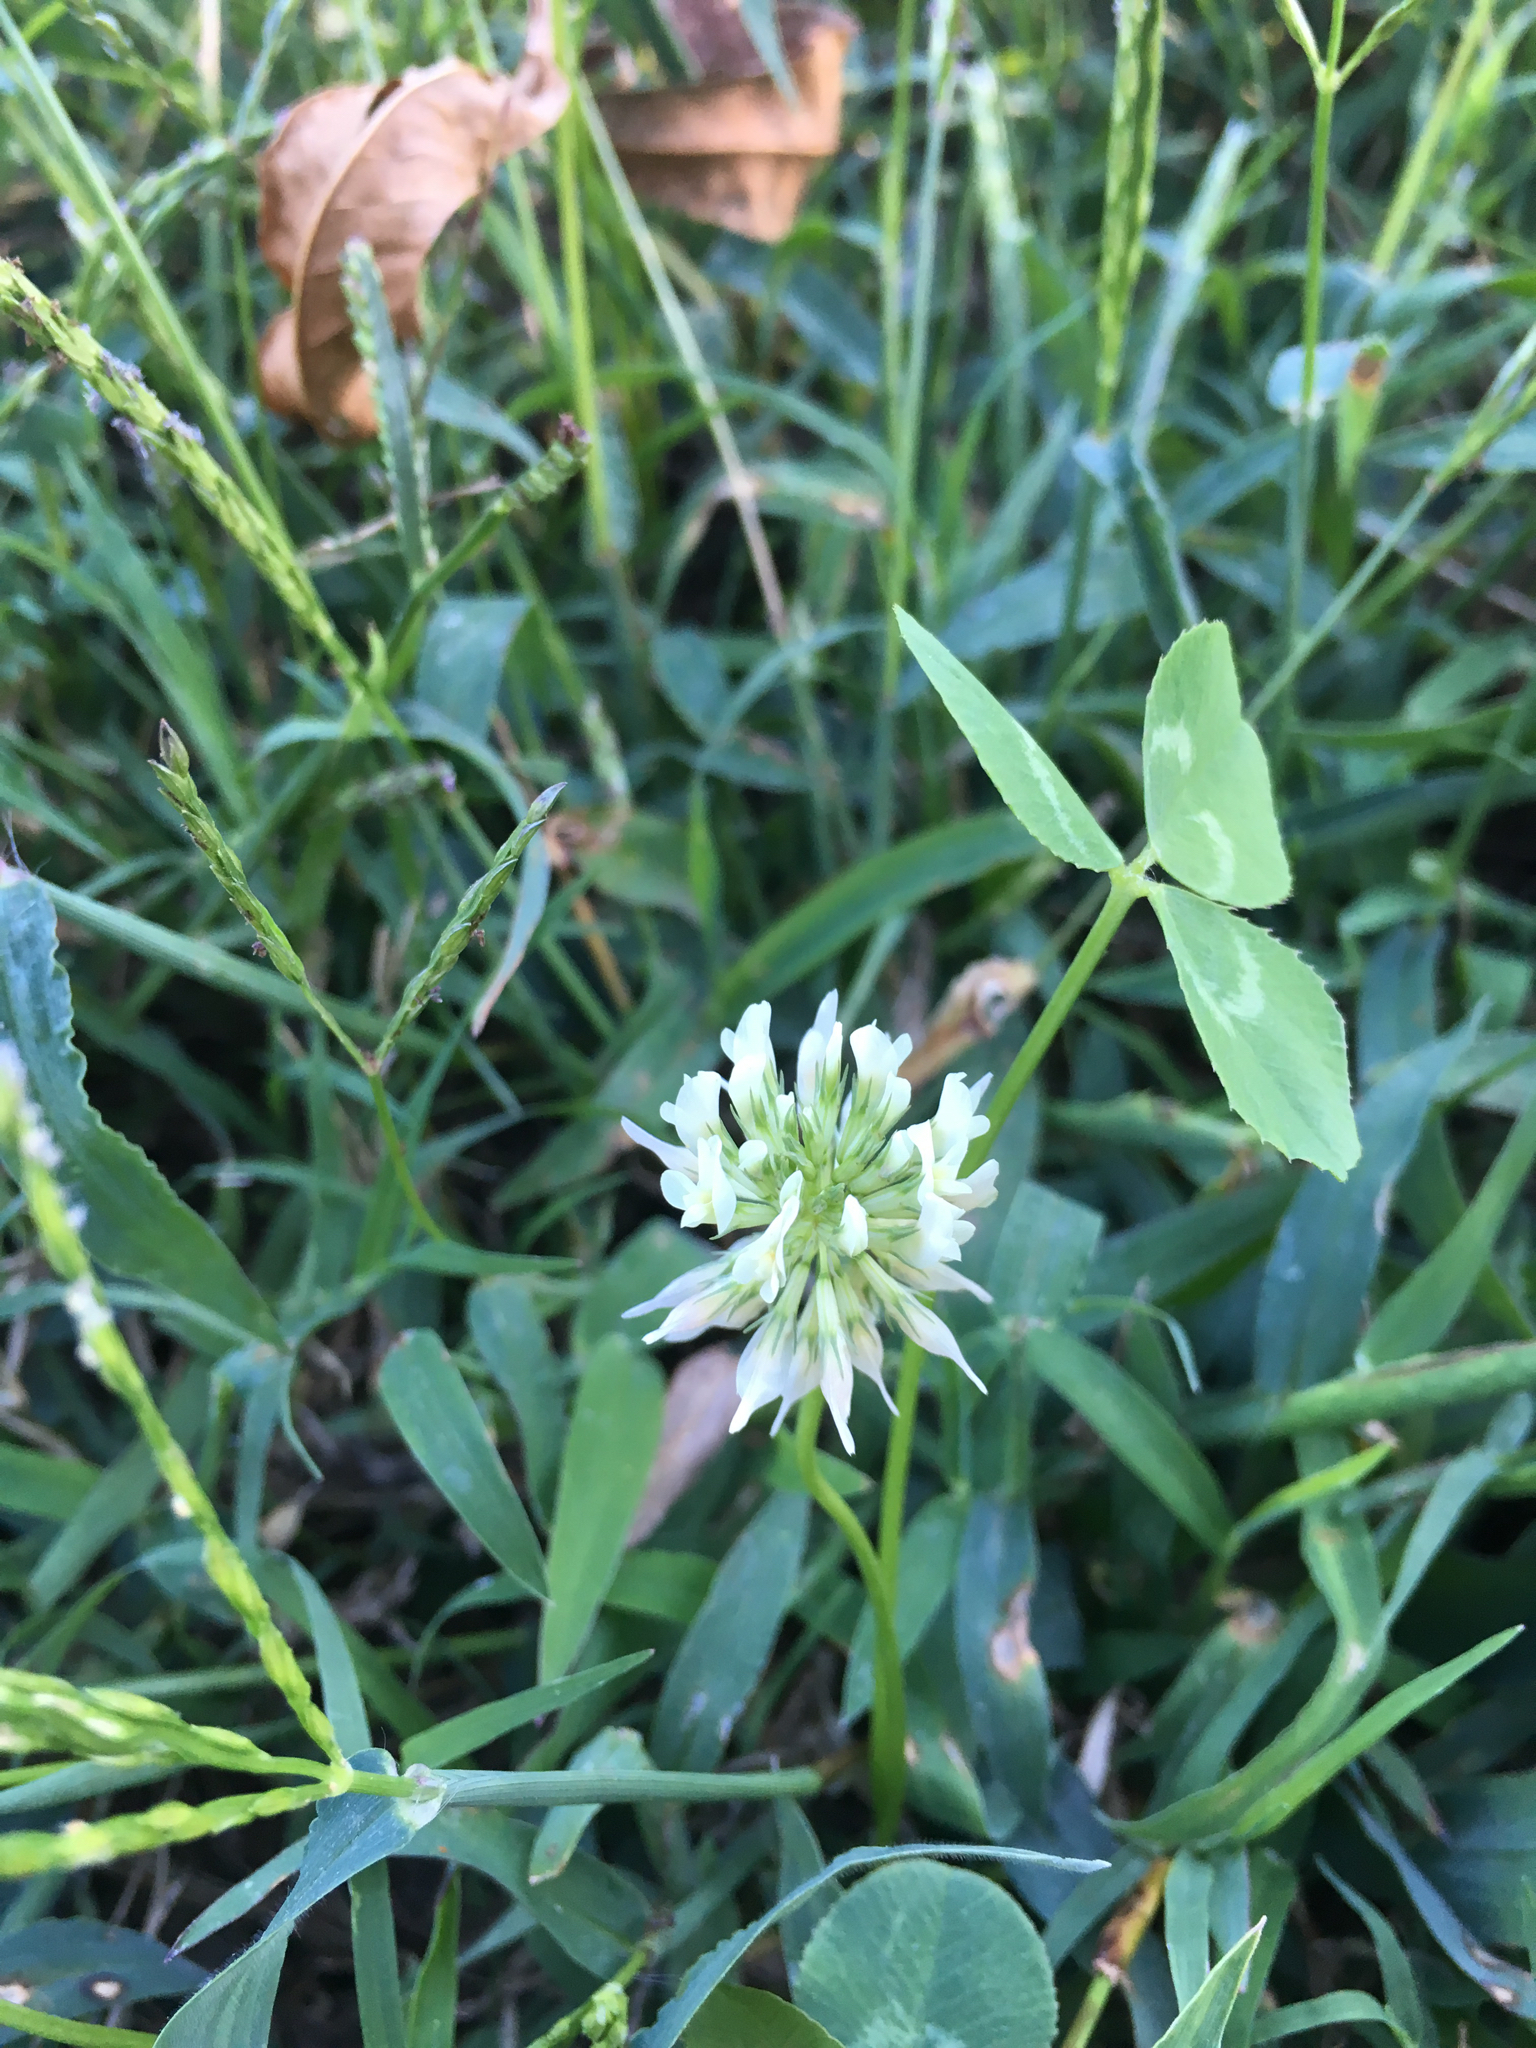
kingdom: Plantae
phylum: Tracheophyta
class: Magnoliopsida
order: Fabales
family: Fabaceae
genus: Trifolium
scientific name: Trifolium repens
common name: White clover
